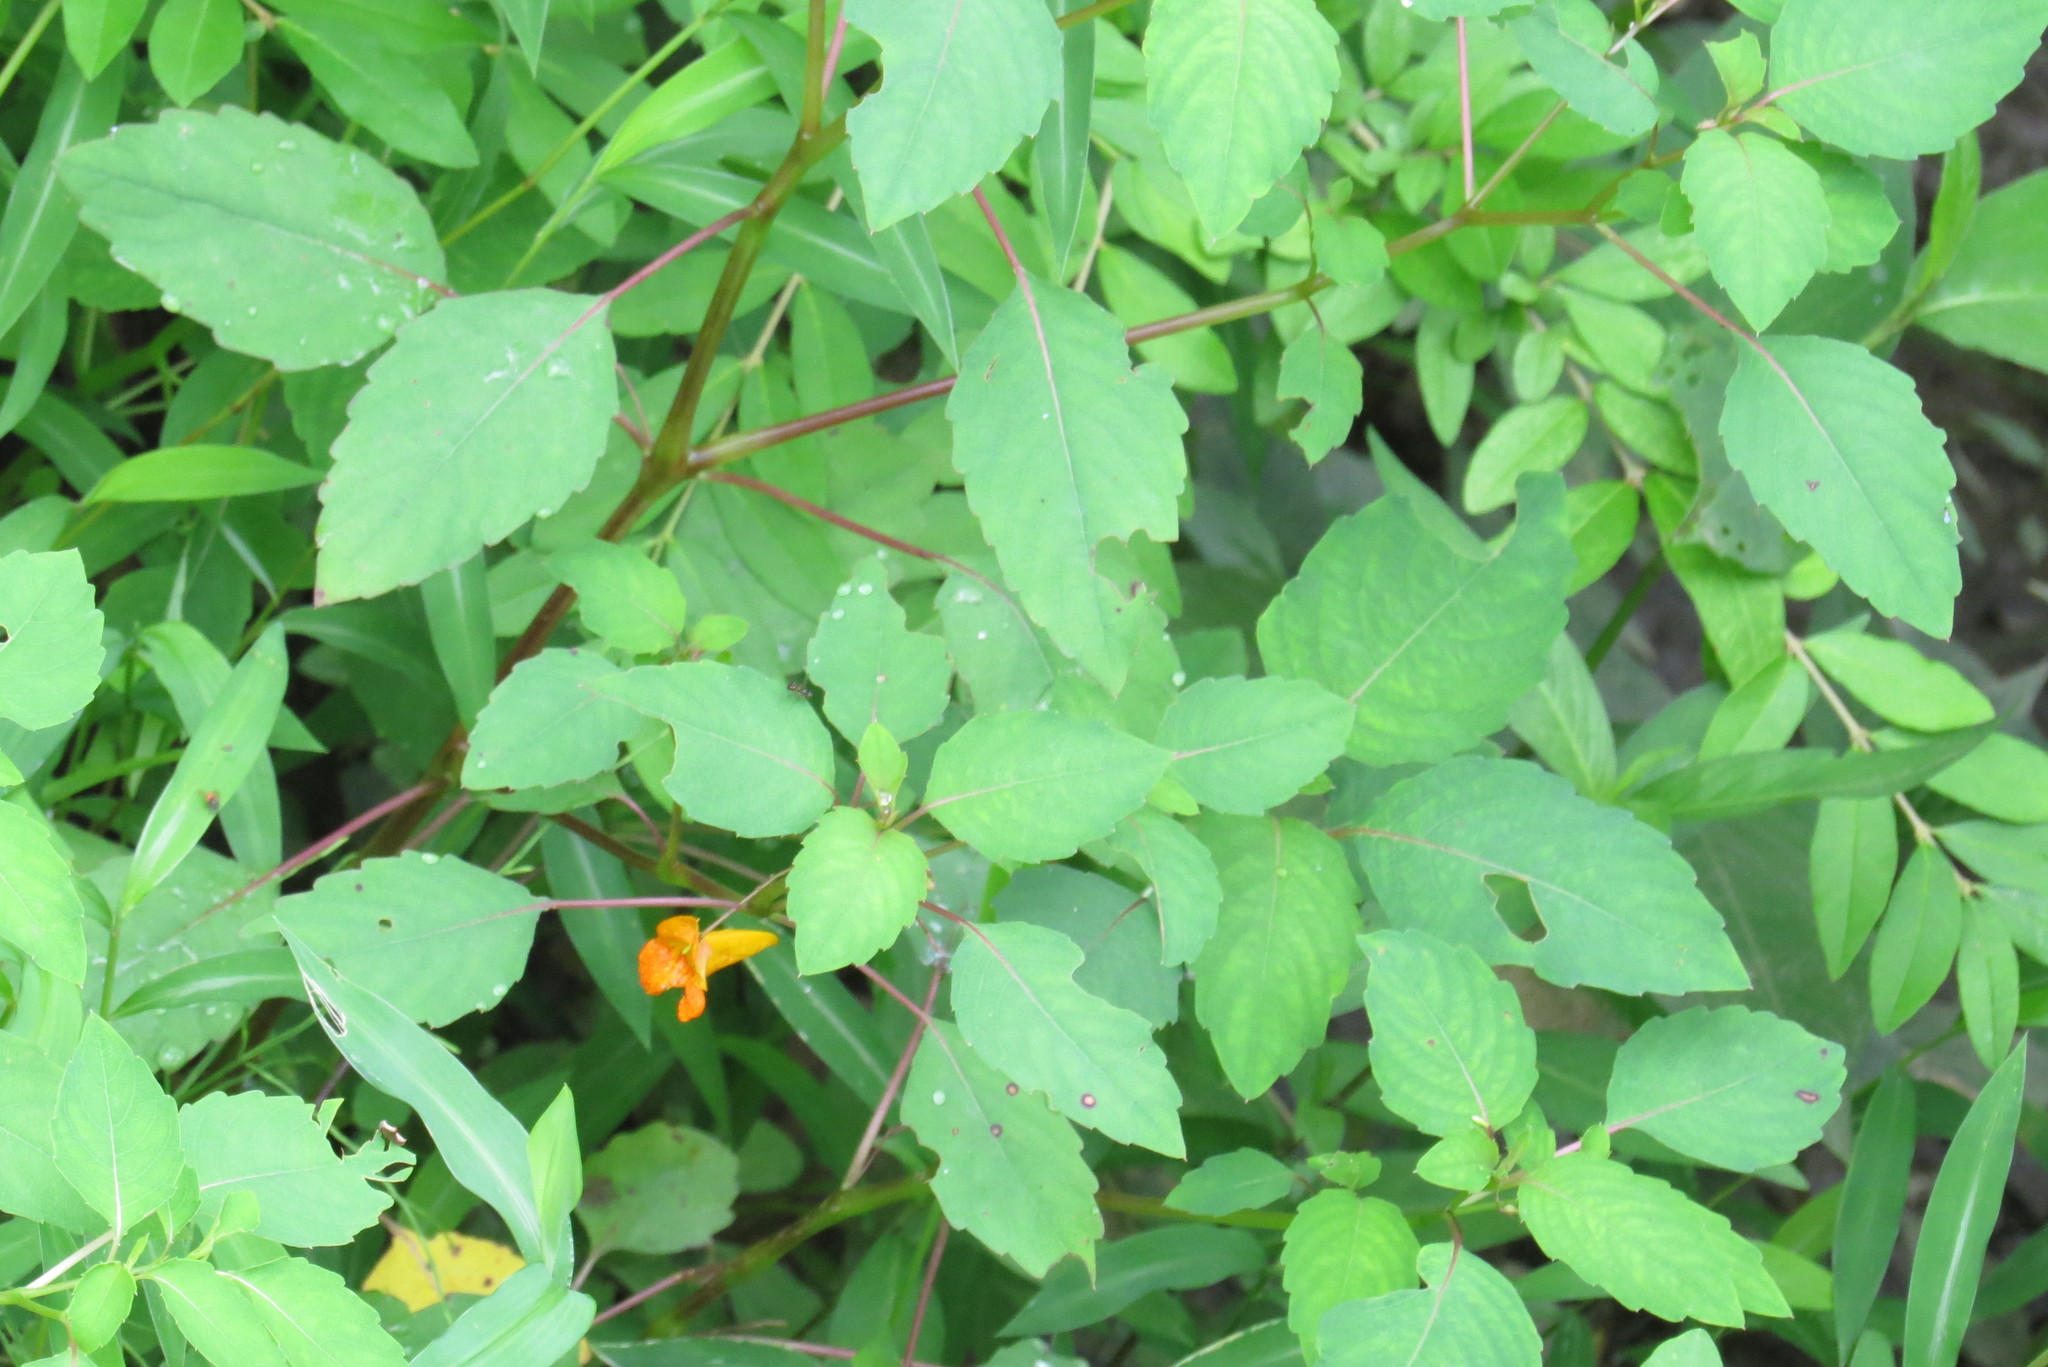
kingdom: Plantae
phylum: Tracheophyta
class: Magnoliopsida
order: Ericales
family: Balsaminaceae
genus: Impatiens
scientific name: Impatiens capensis
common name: Orange balsam
